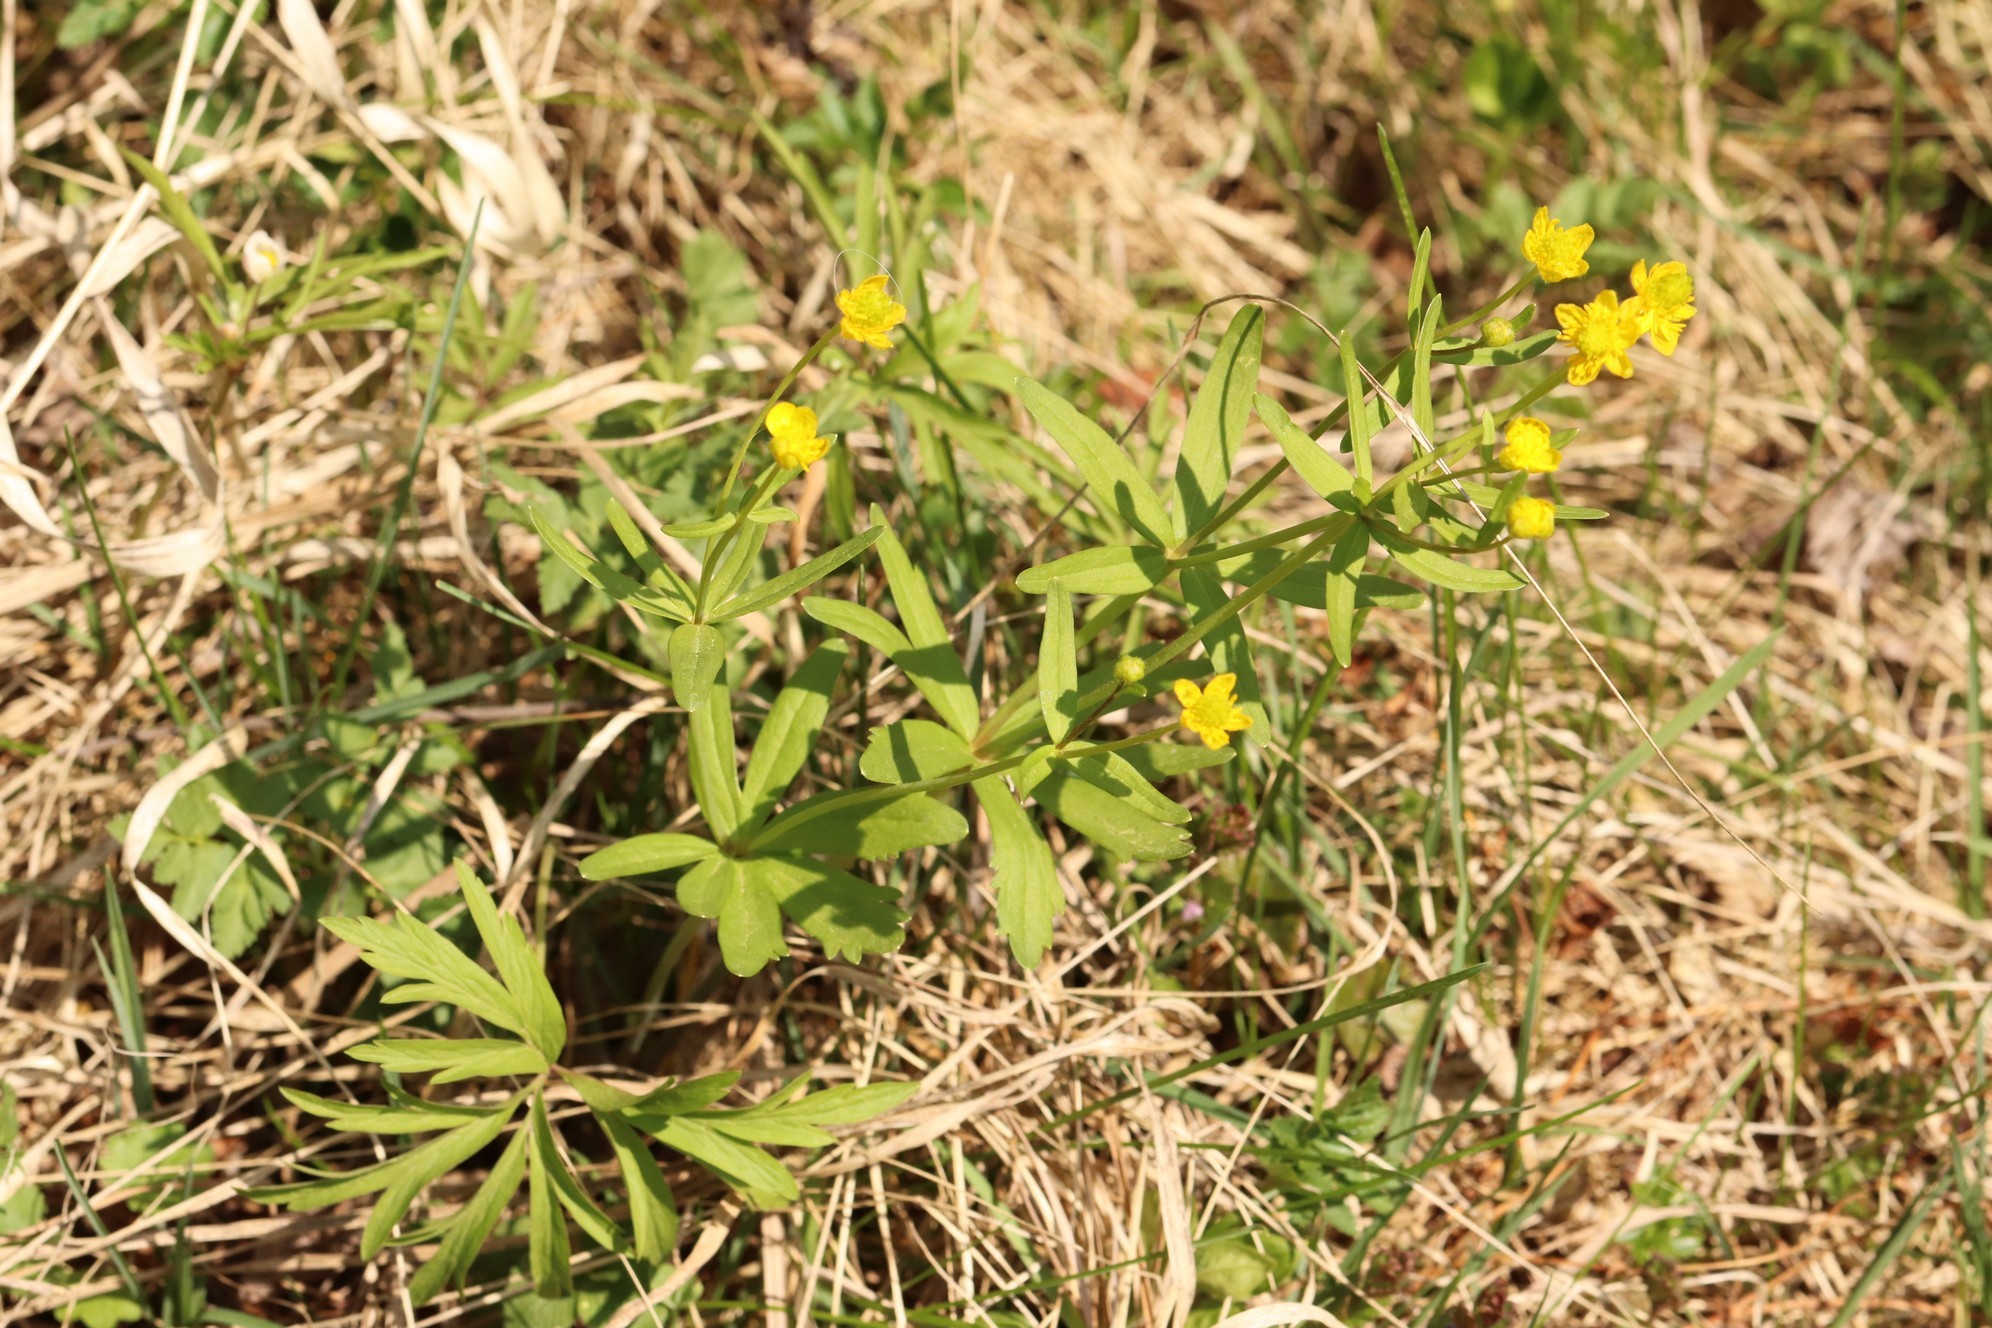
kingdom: Plantae
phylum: Tracheophyta
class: Magnoliopsida
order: Ranunculales
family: Ranunculaceae
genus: Ranunculus
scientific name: Ranunculus monophyllus
